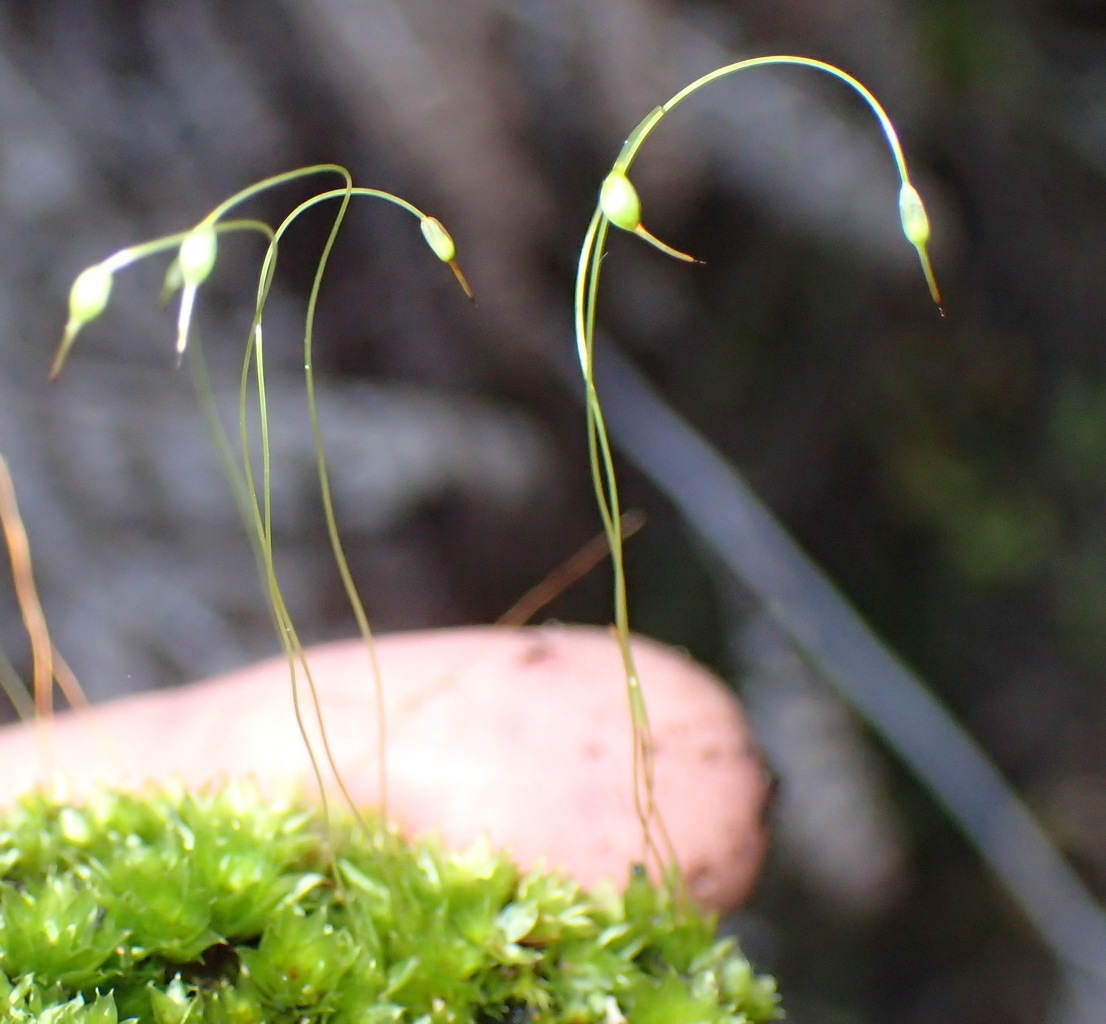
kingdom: Plantae
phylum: Bryophyta
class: Bryopsida
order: Funariales
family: Funariaceae
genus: Funaria
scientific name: Funaria hygrometrica
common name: Common cord moss
